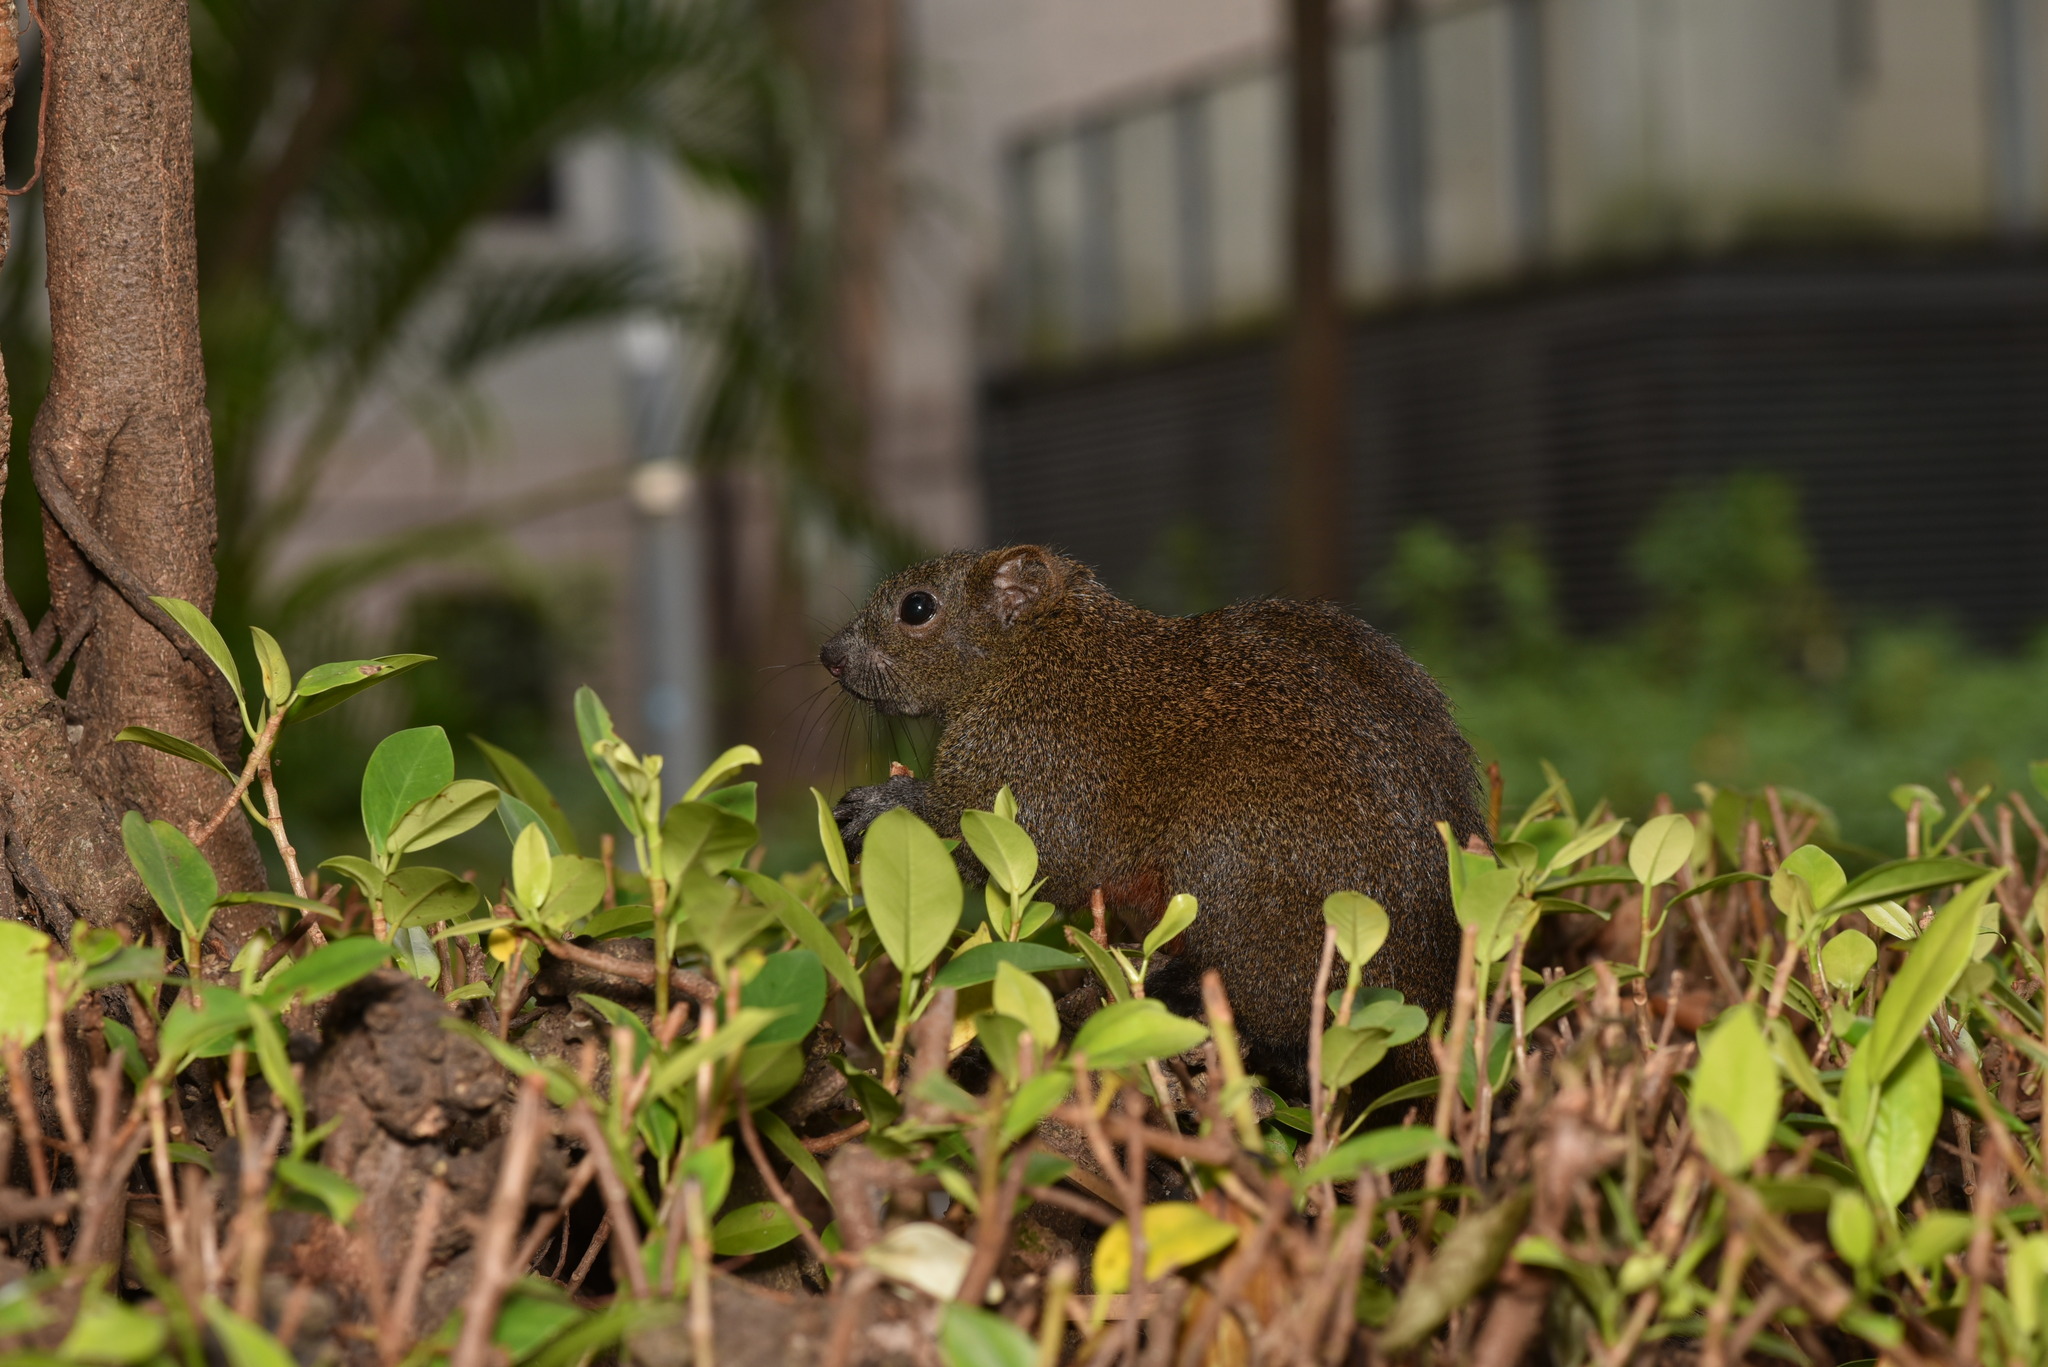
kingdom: Animalia
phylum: Chordata
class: Mammalia
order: Rodentia
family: Sciuridae
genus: Callosciurus
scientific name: Callosciurus erythraeus
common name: Pallas's squirrel
